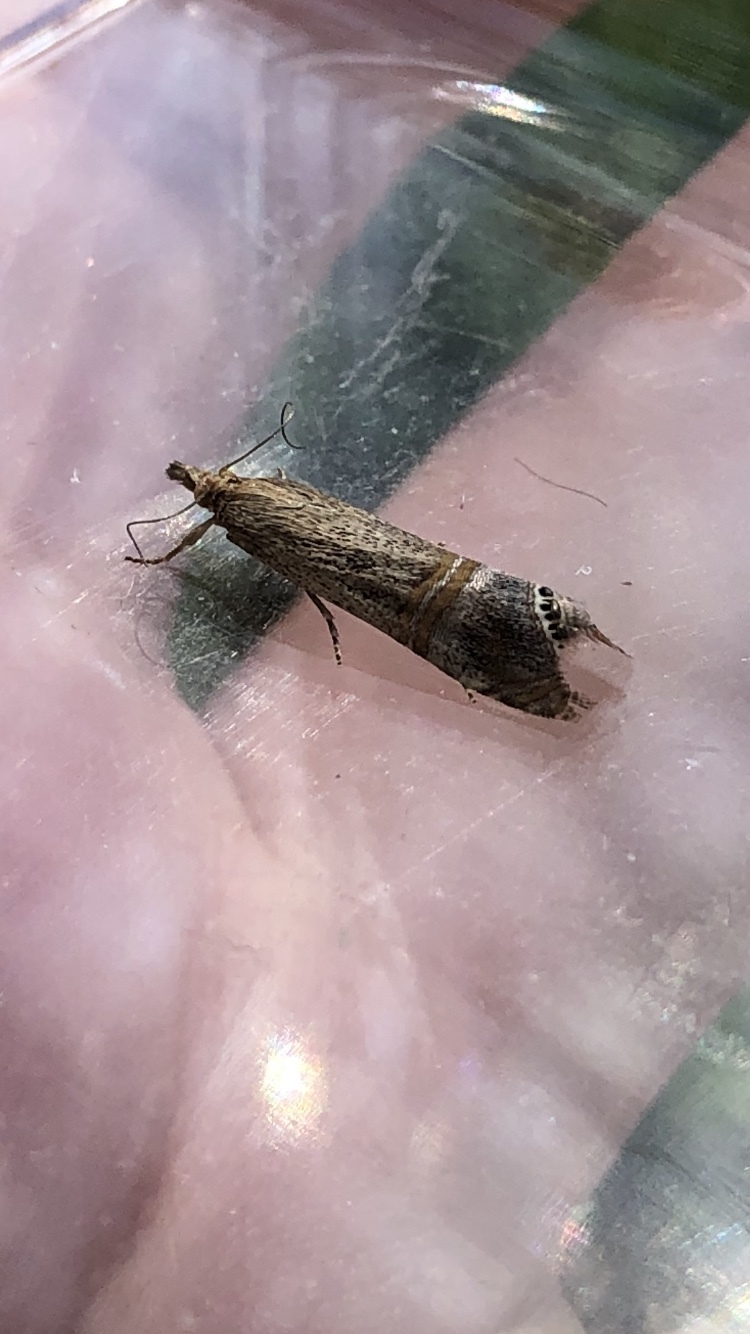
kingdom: Animalia
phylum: Arthropoda
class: Insecta
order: Lepidoptera
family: Crambidae
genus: Euchromius
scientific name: Euchromius ocellea
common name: Necklace veneer moth
